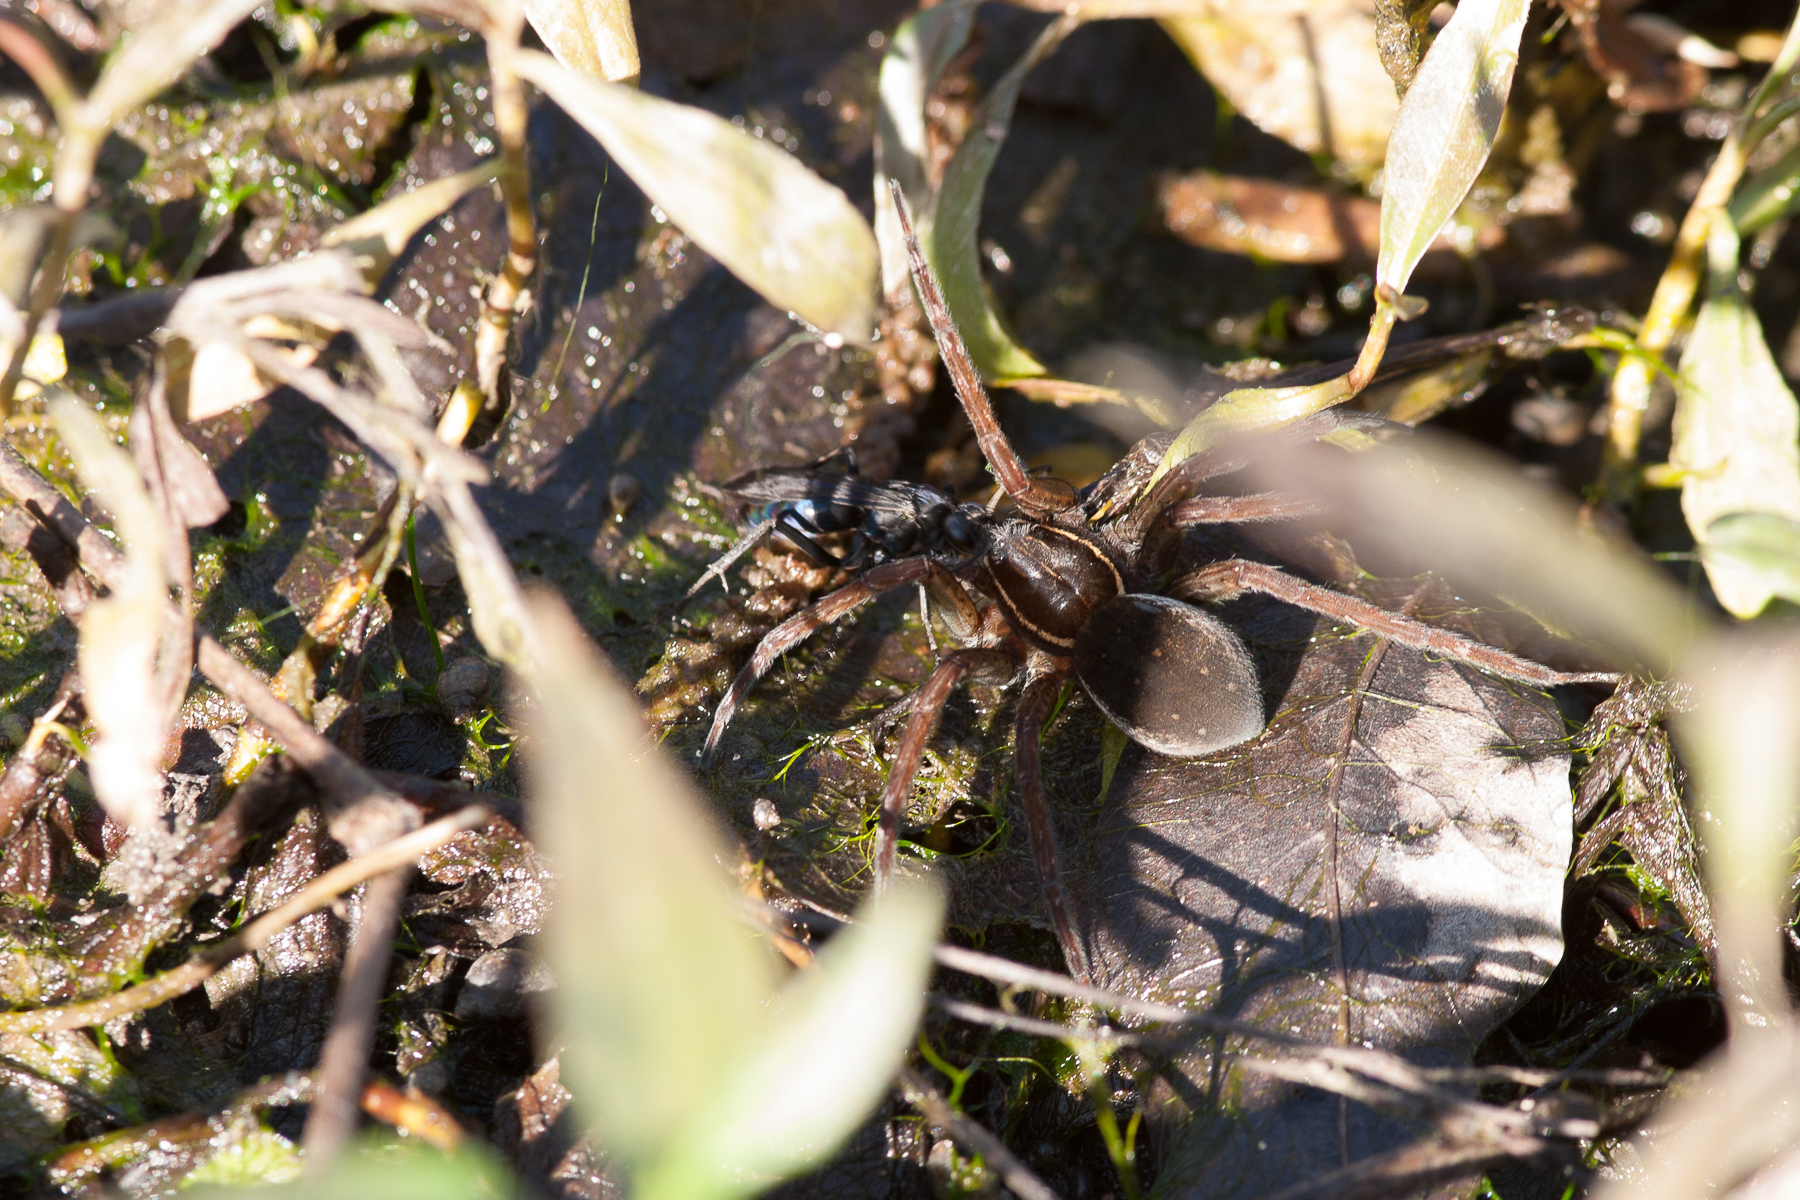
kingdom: Animalia
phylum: Arthropoda
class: Arachnida
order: Araneae
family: Pisauridae
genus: Dolomedes
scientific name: Dolomedes triton
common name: Six-spotted fishing spider
